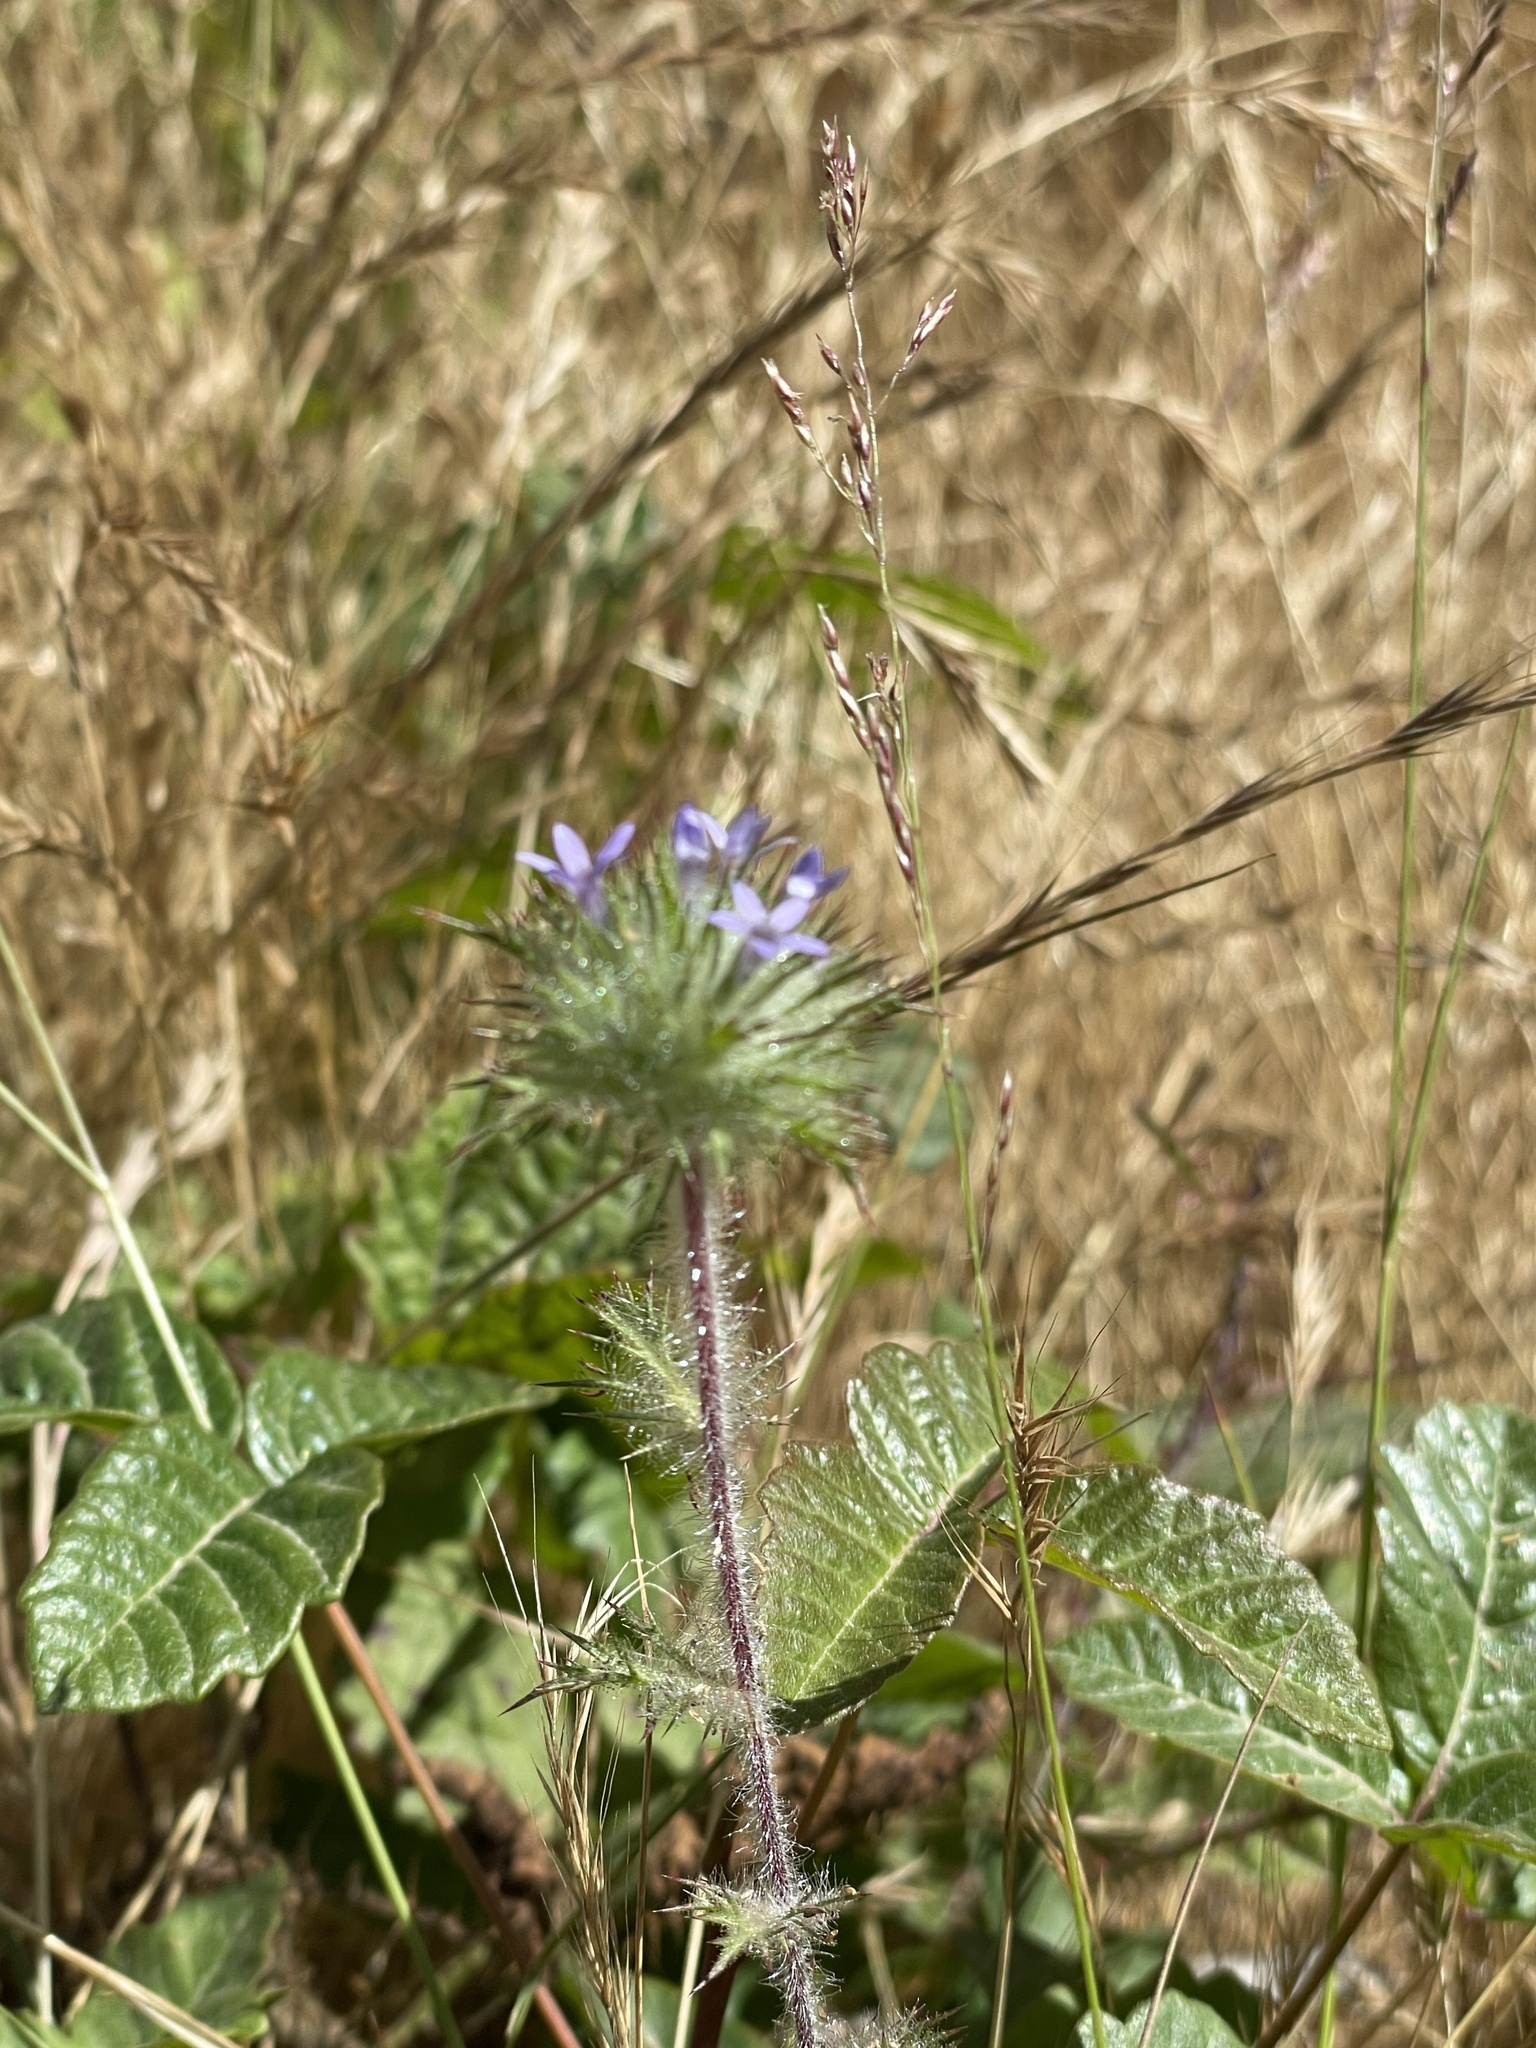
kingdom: Plantae
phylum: Tracheophyta
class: Magnoliopsida
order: Ericales
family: Polemoniaceae
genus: Navarretia
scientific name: Navarretia squarrosa
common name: Skunkweed
